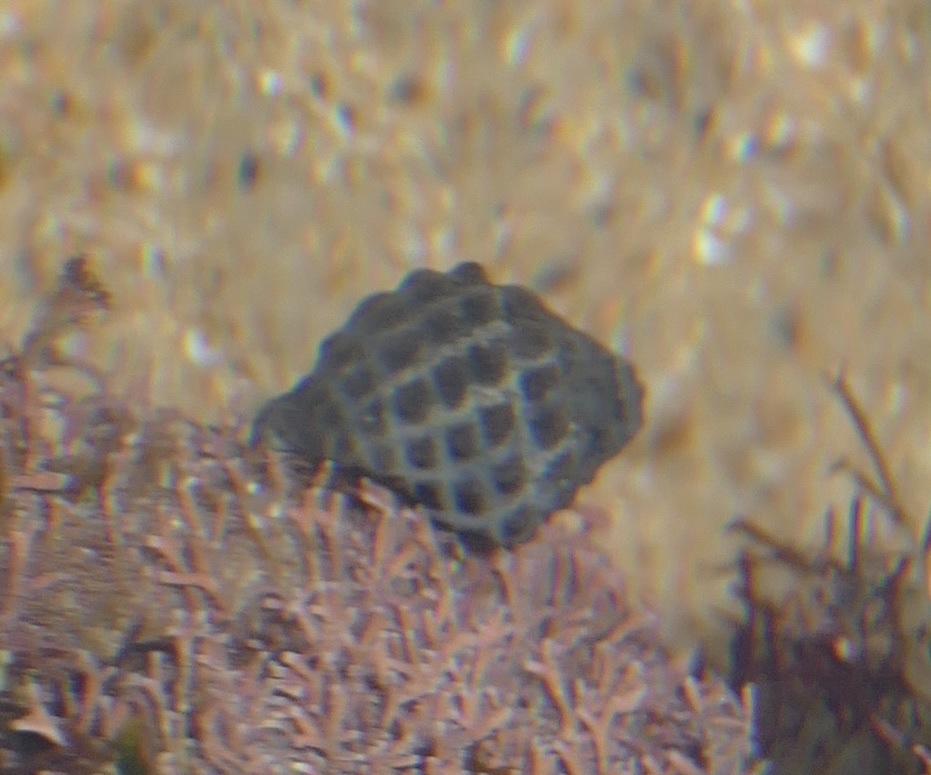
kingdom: Animalia
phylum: Mollusca
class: Gastropoda
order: Neogastropoda
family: Muricidae
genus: Tenguella
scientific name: Tenguella granulata
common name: Granular drupe
